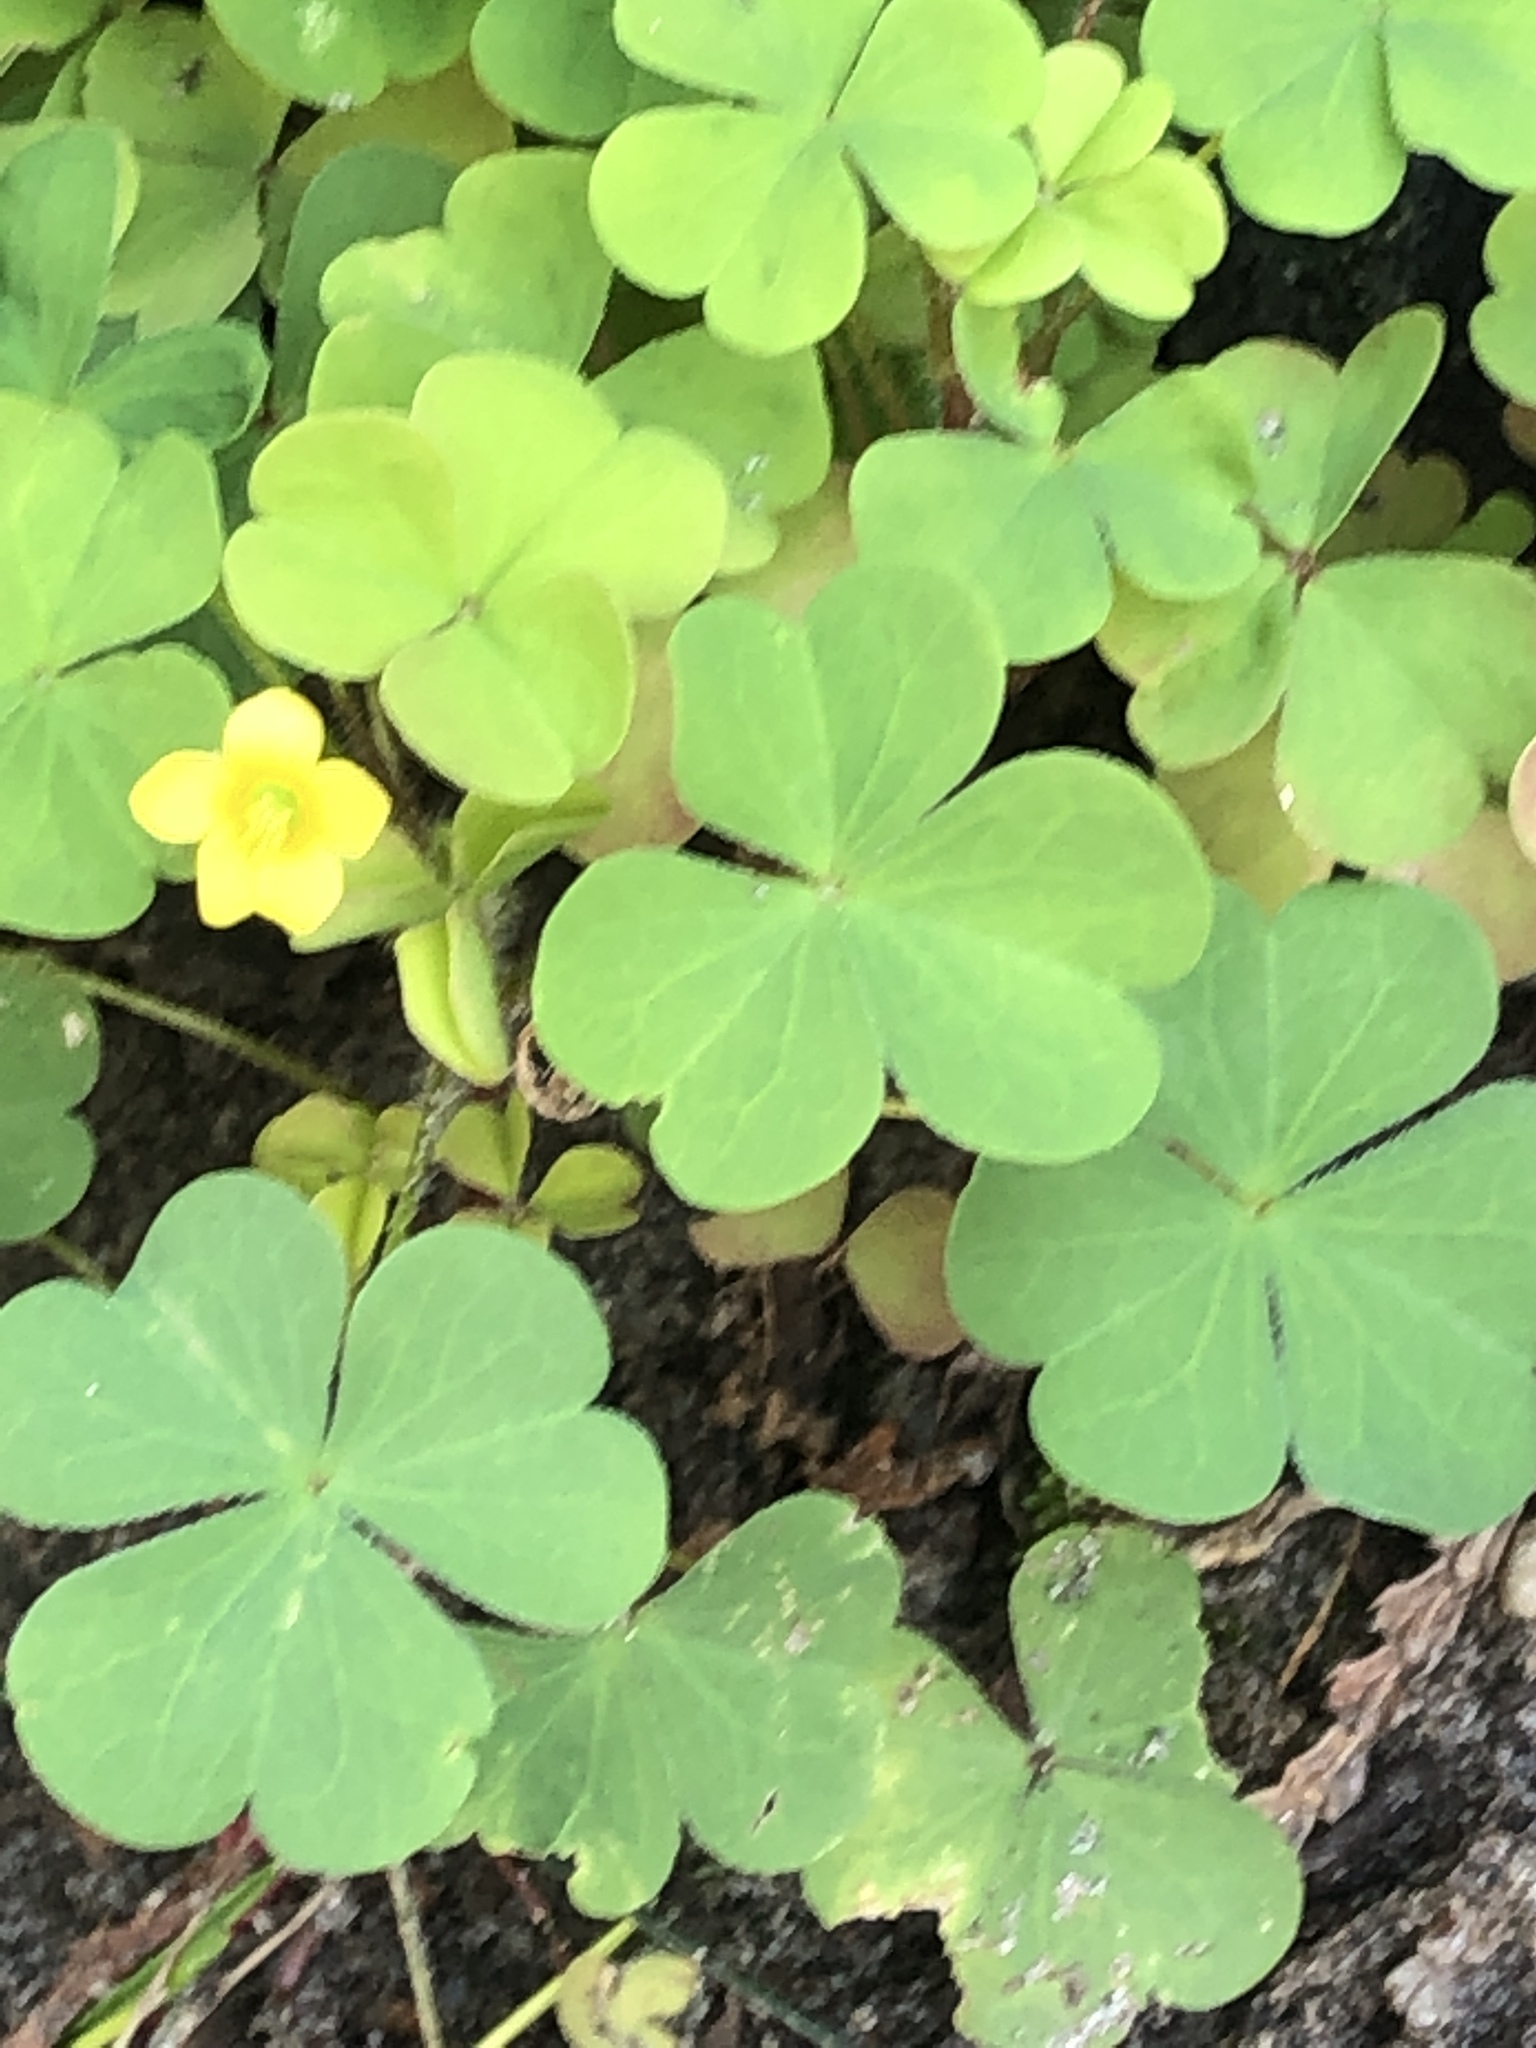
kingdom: Plantae
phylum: Tracheophyta
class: Magnoliopsida
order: Oxalidales
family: Oxalidaceae
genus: Oxalis
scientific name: Oxalis stricta
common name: Upright yellow-sorrel
